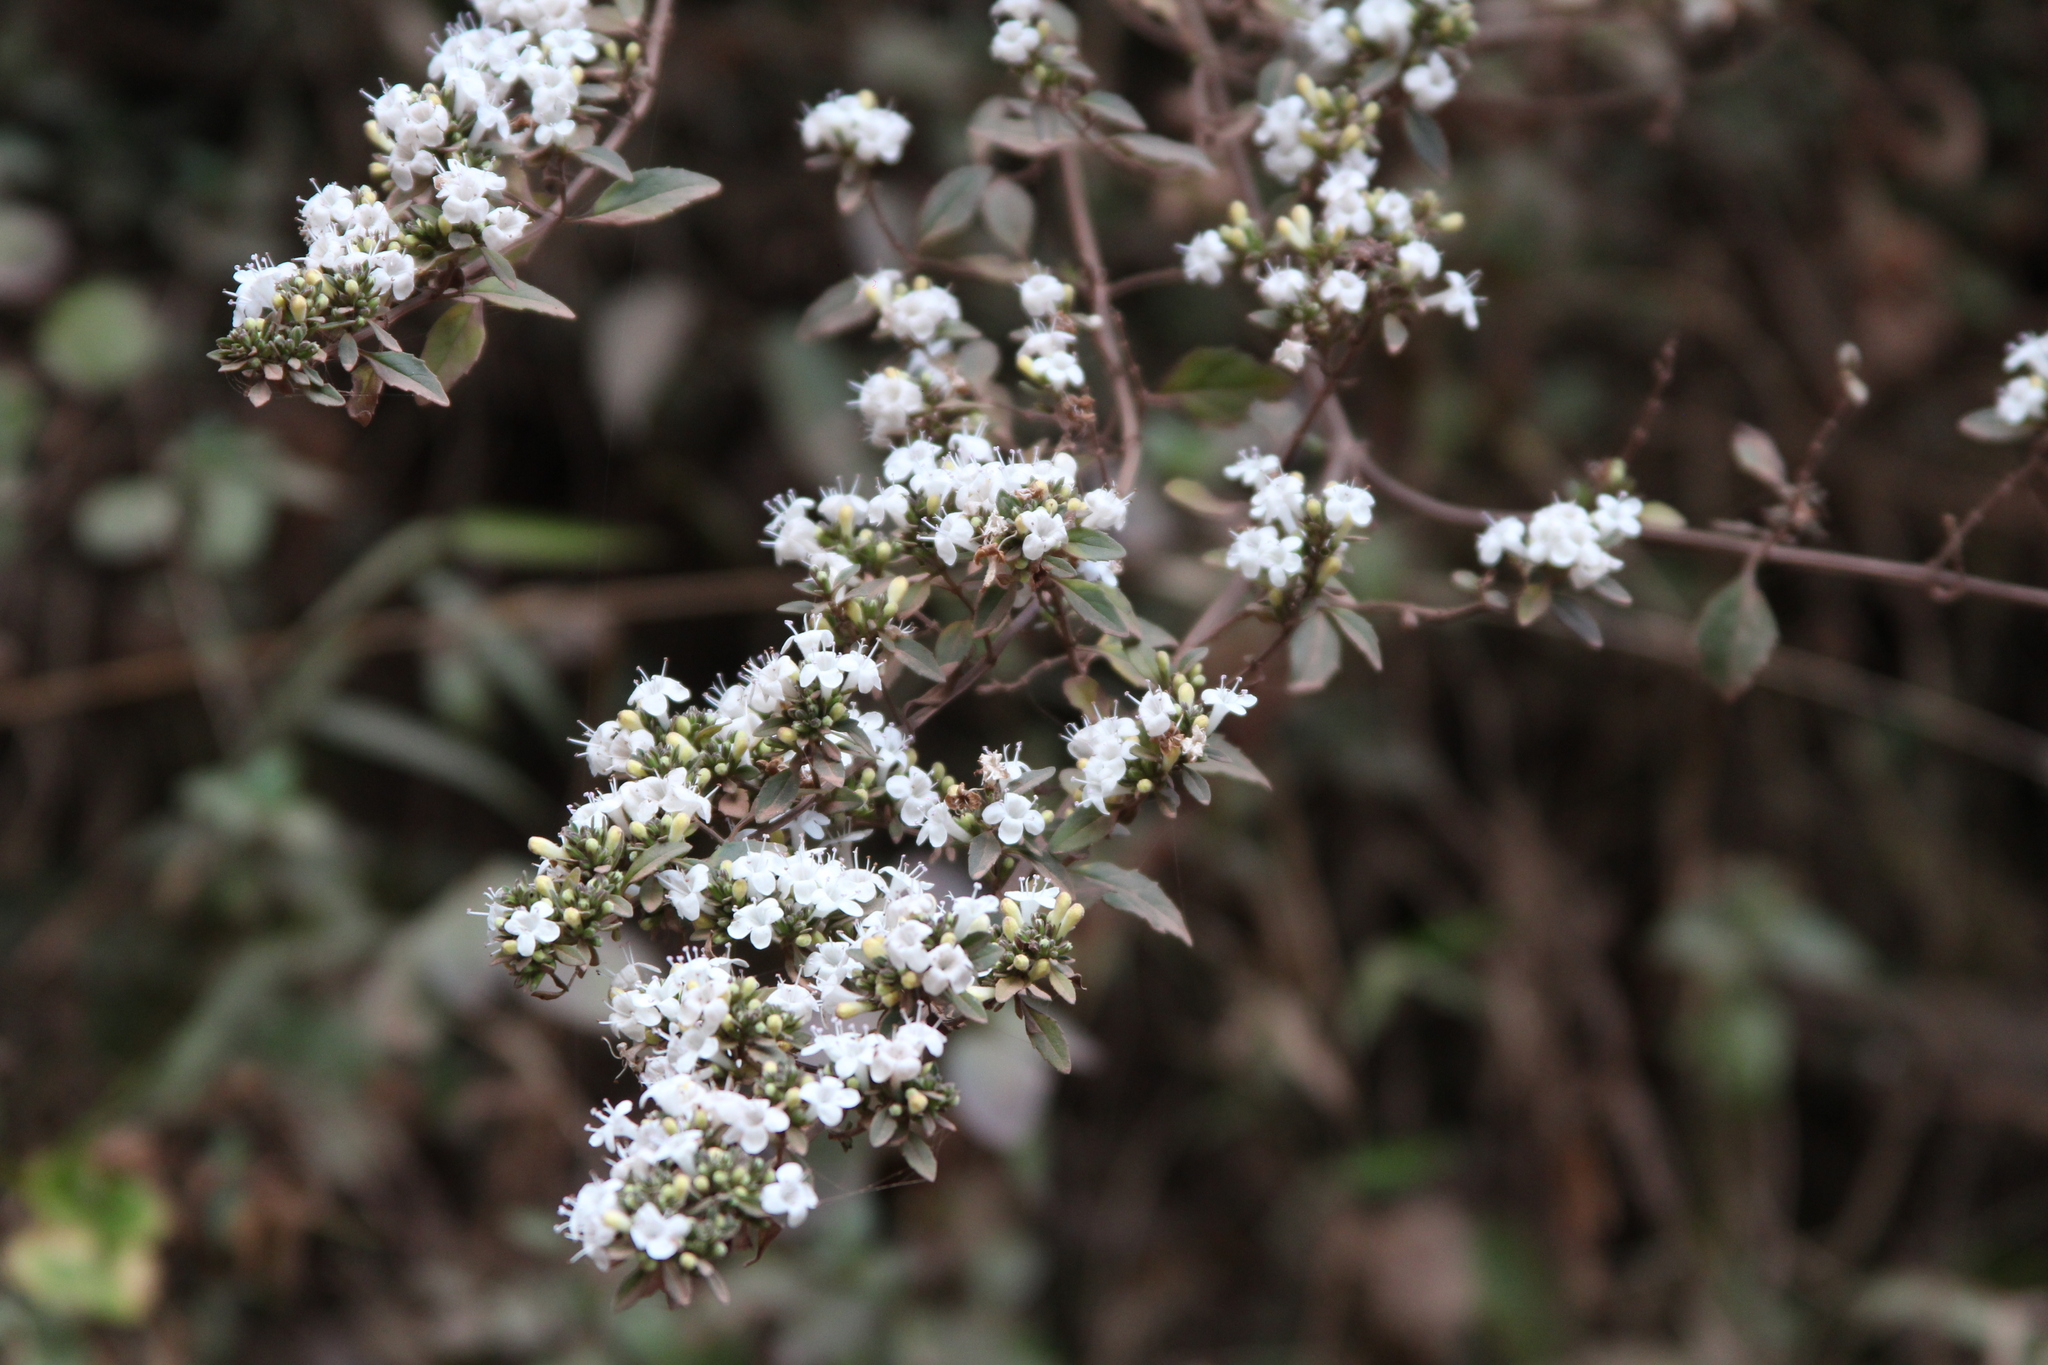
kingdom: Plantae
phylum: Tracheophyta
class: Magnoliopsida
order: Lamiales
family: Lamiaceae
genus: Clinopodium
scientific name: Clinopodium bolivianum
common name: Inca muña
